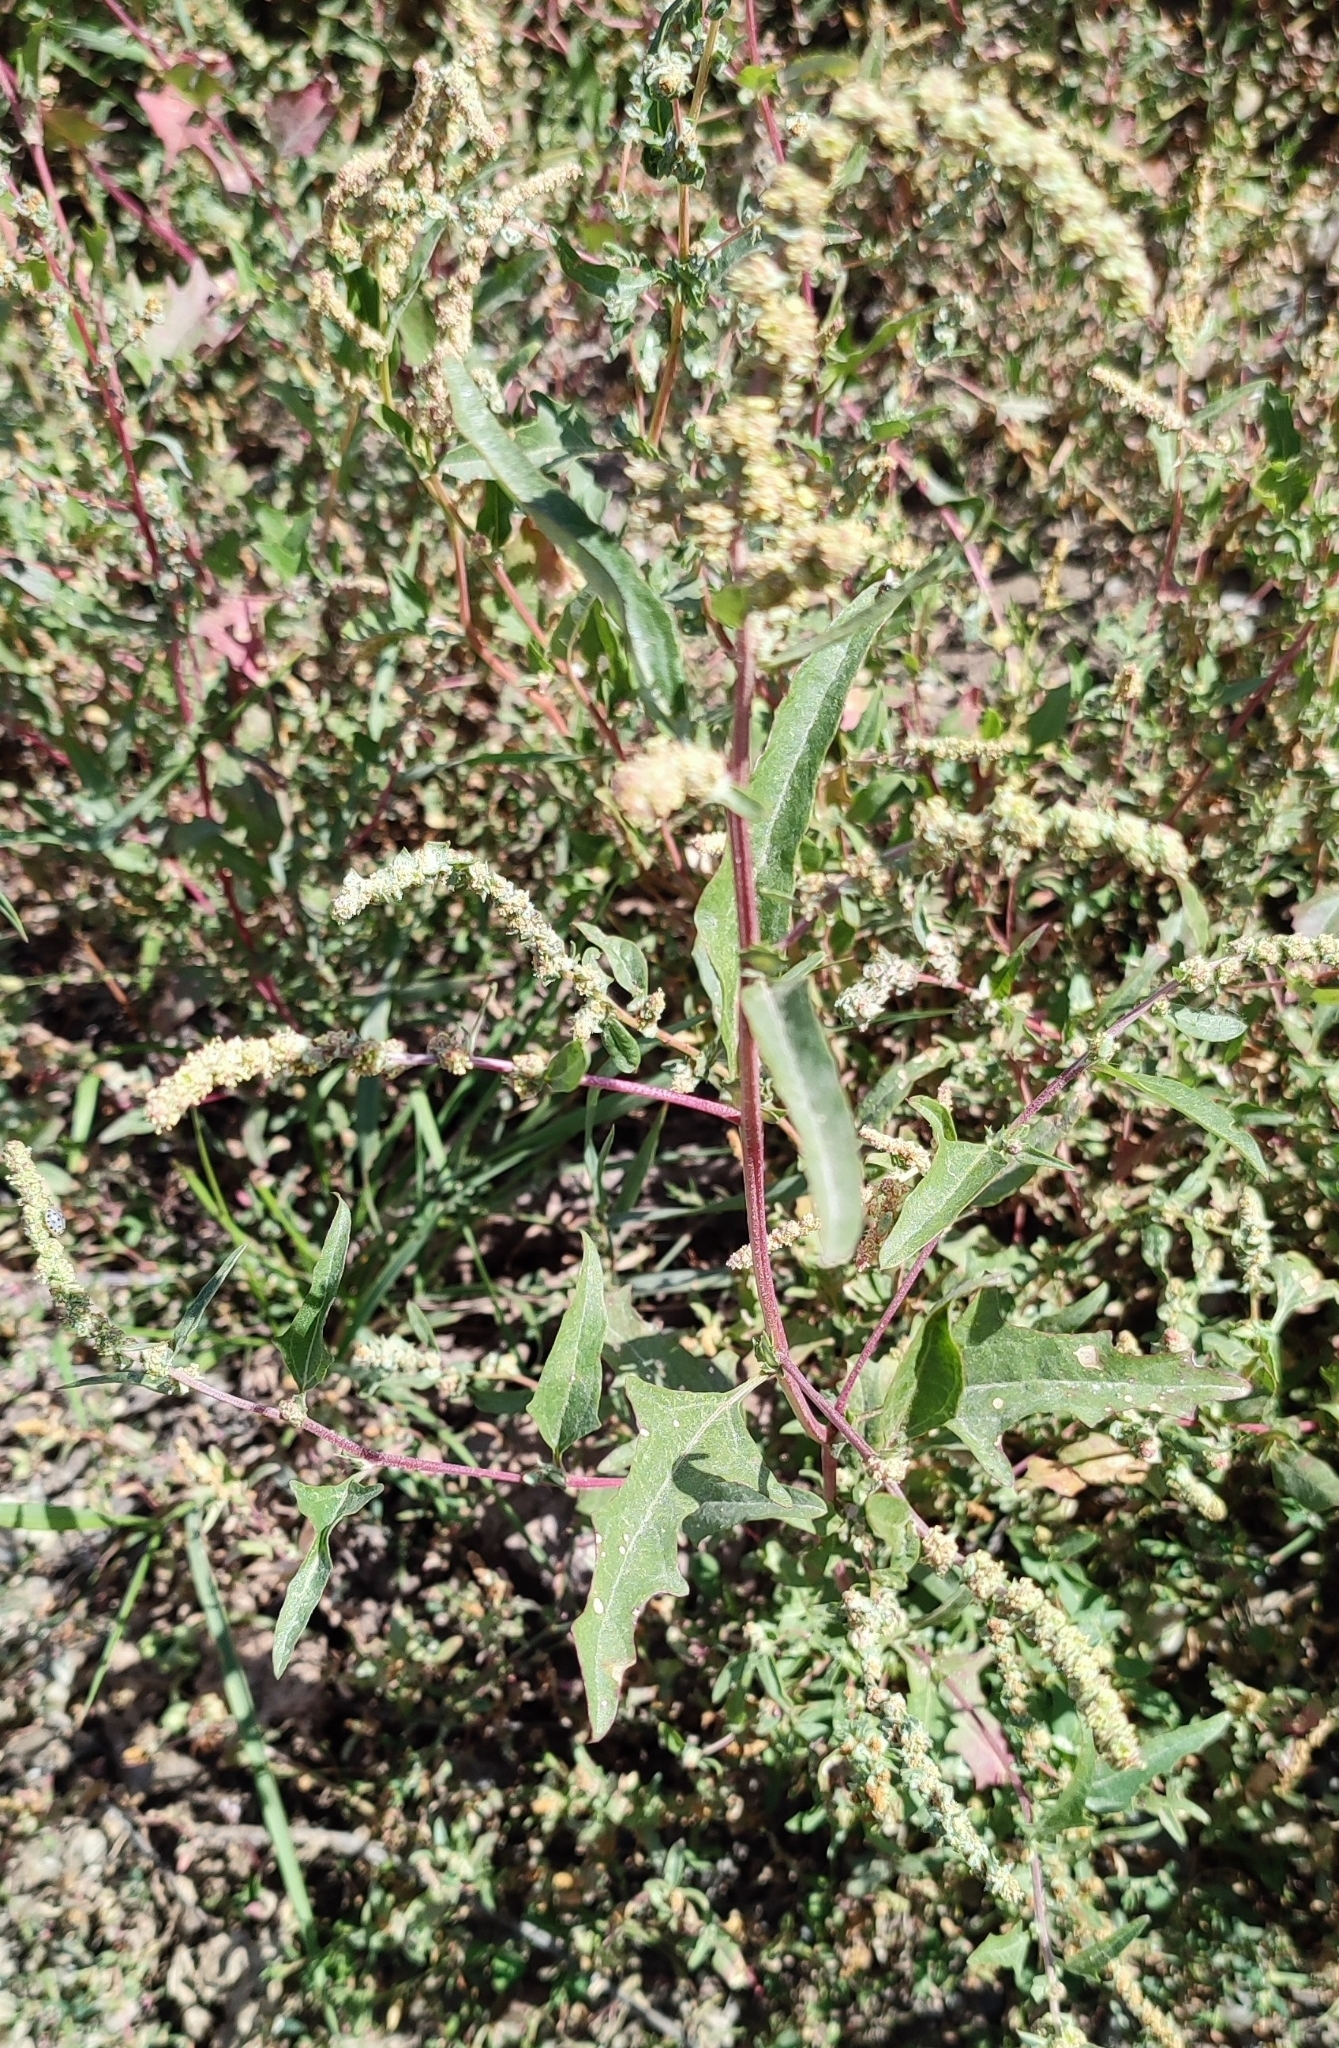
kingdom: Plantae
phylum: Tracheophyta
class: Magnoliopsida
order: Caryophyllales
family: Amaranthaceae
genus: Atriplex
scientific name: Atriplex tatarica
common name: Tatarian orache
